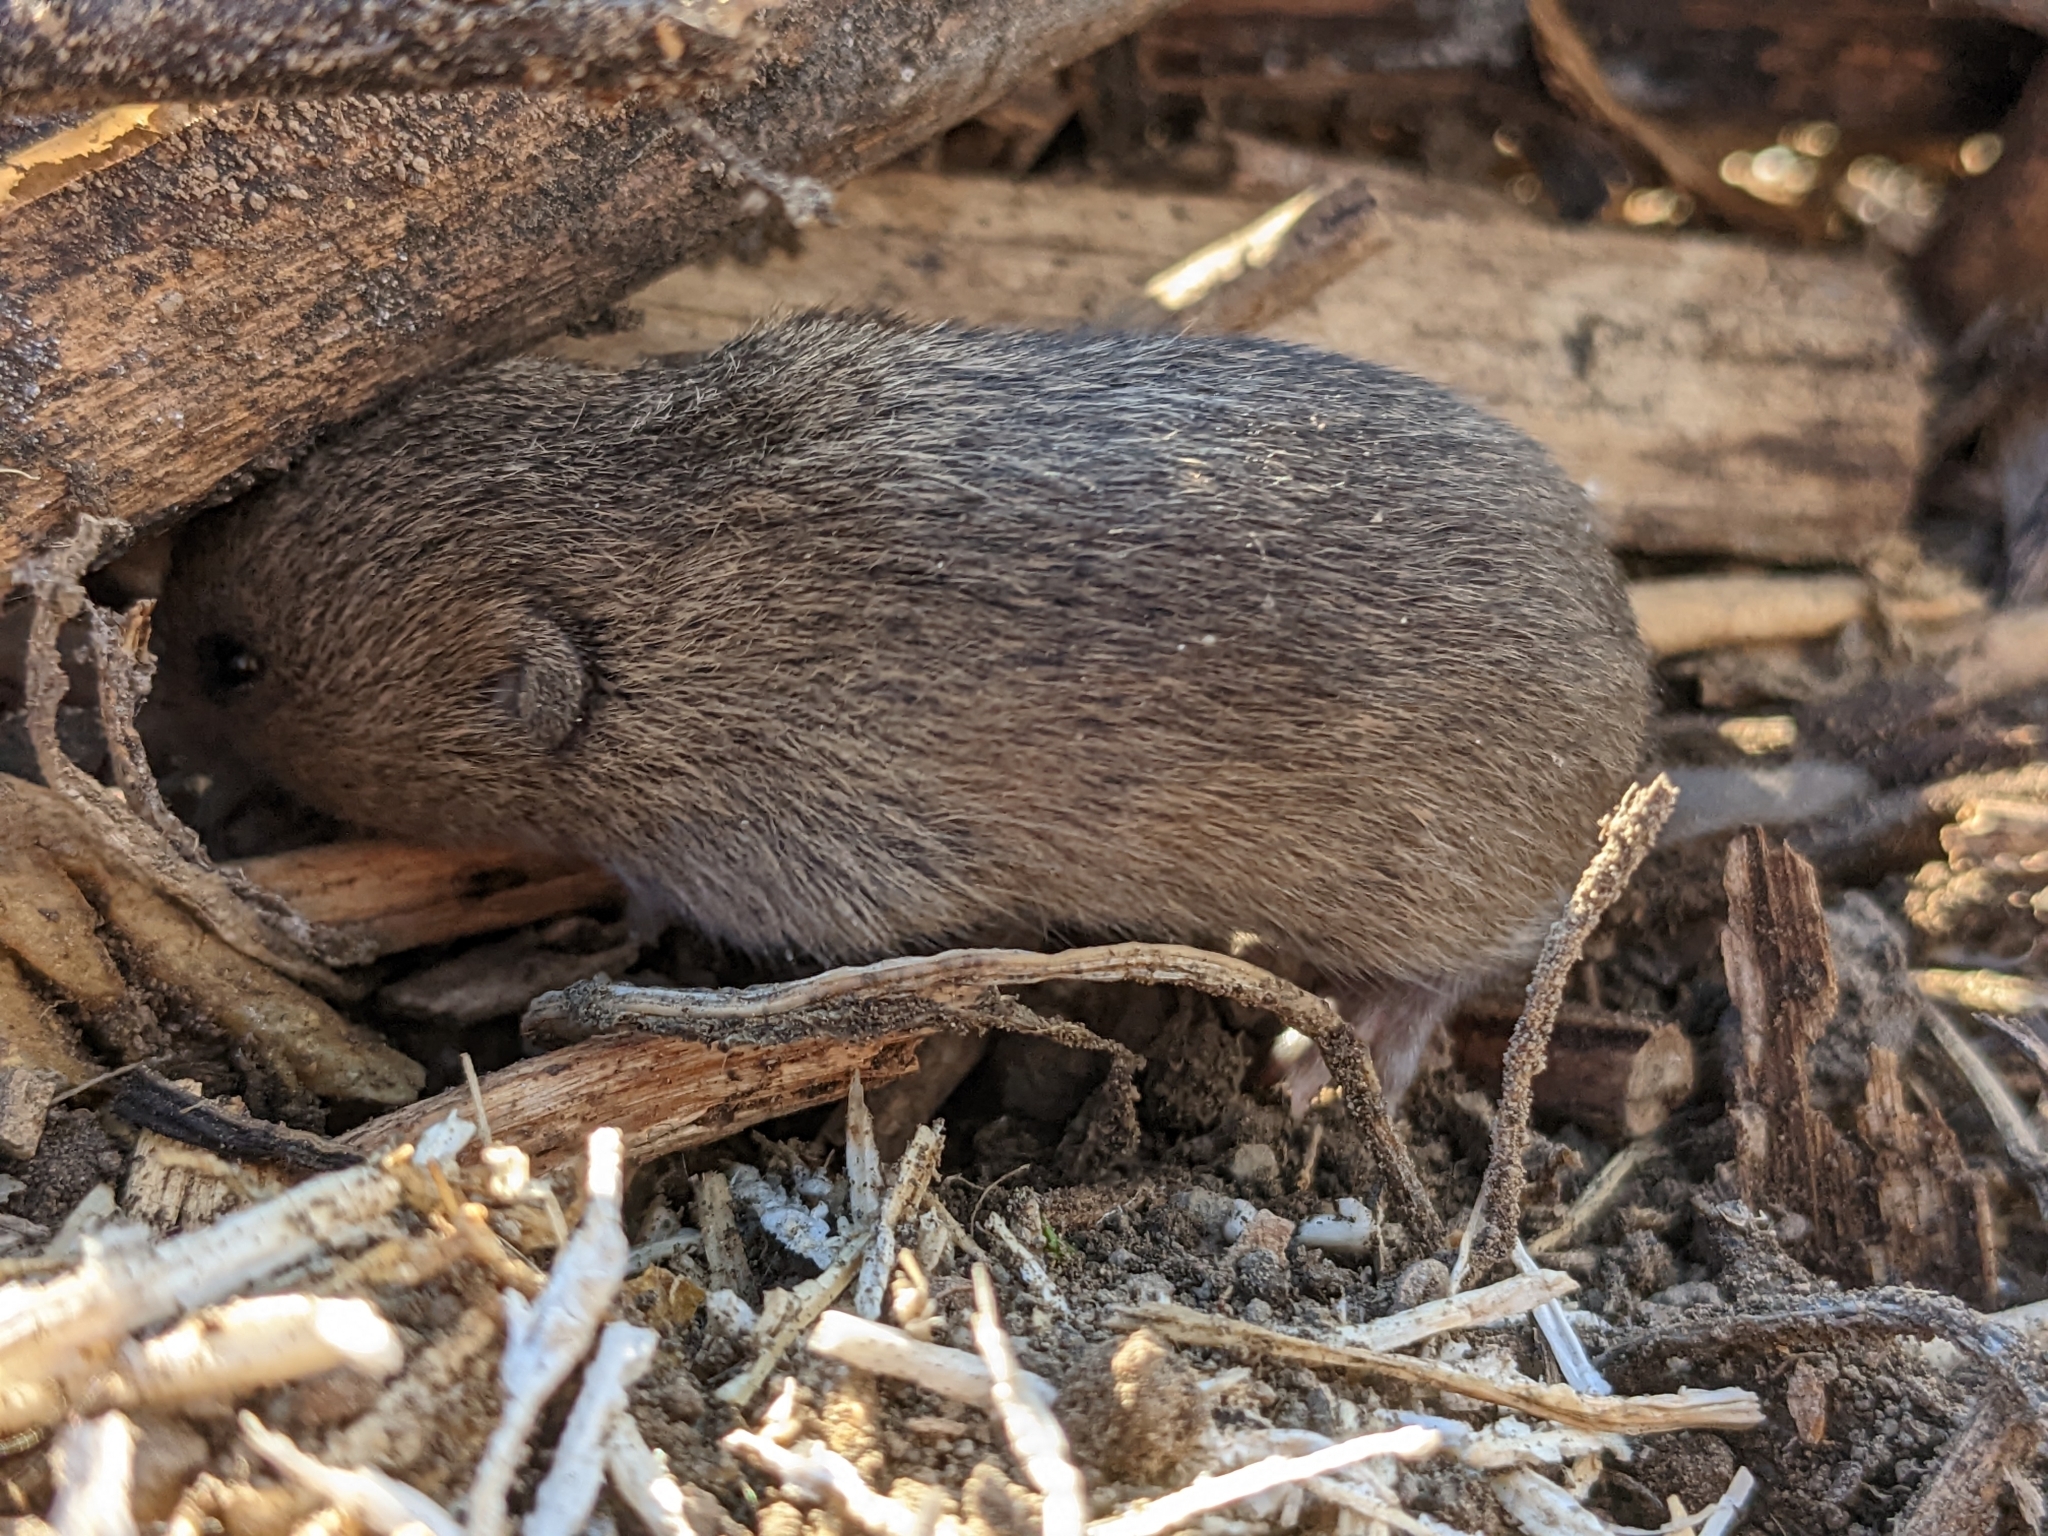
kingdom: Animalia
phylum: Chordata
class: Mammalia
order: Rodentia
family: Cricetidae
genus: Microtus
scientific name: Microtus californicus
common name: California vole
